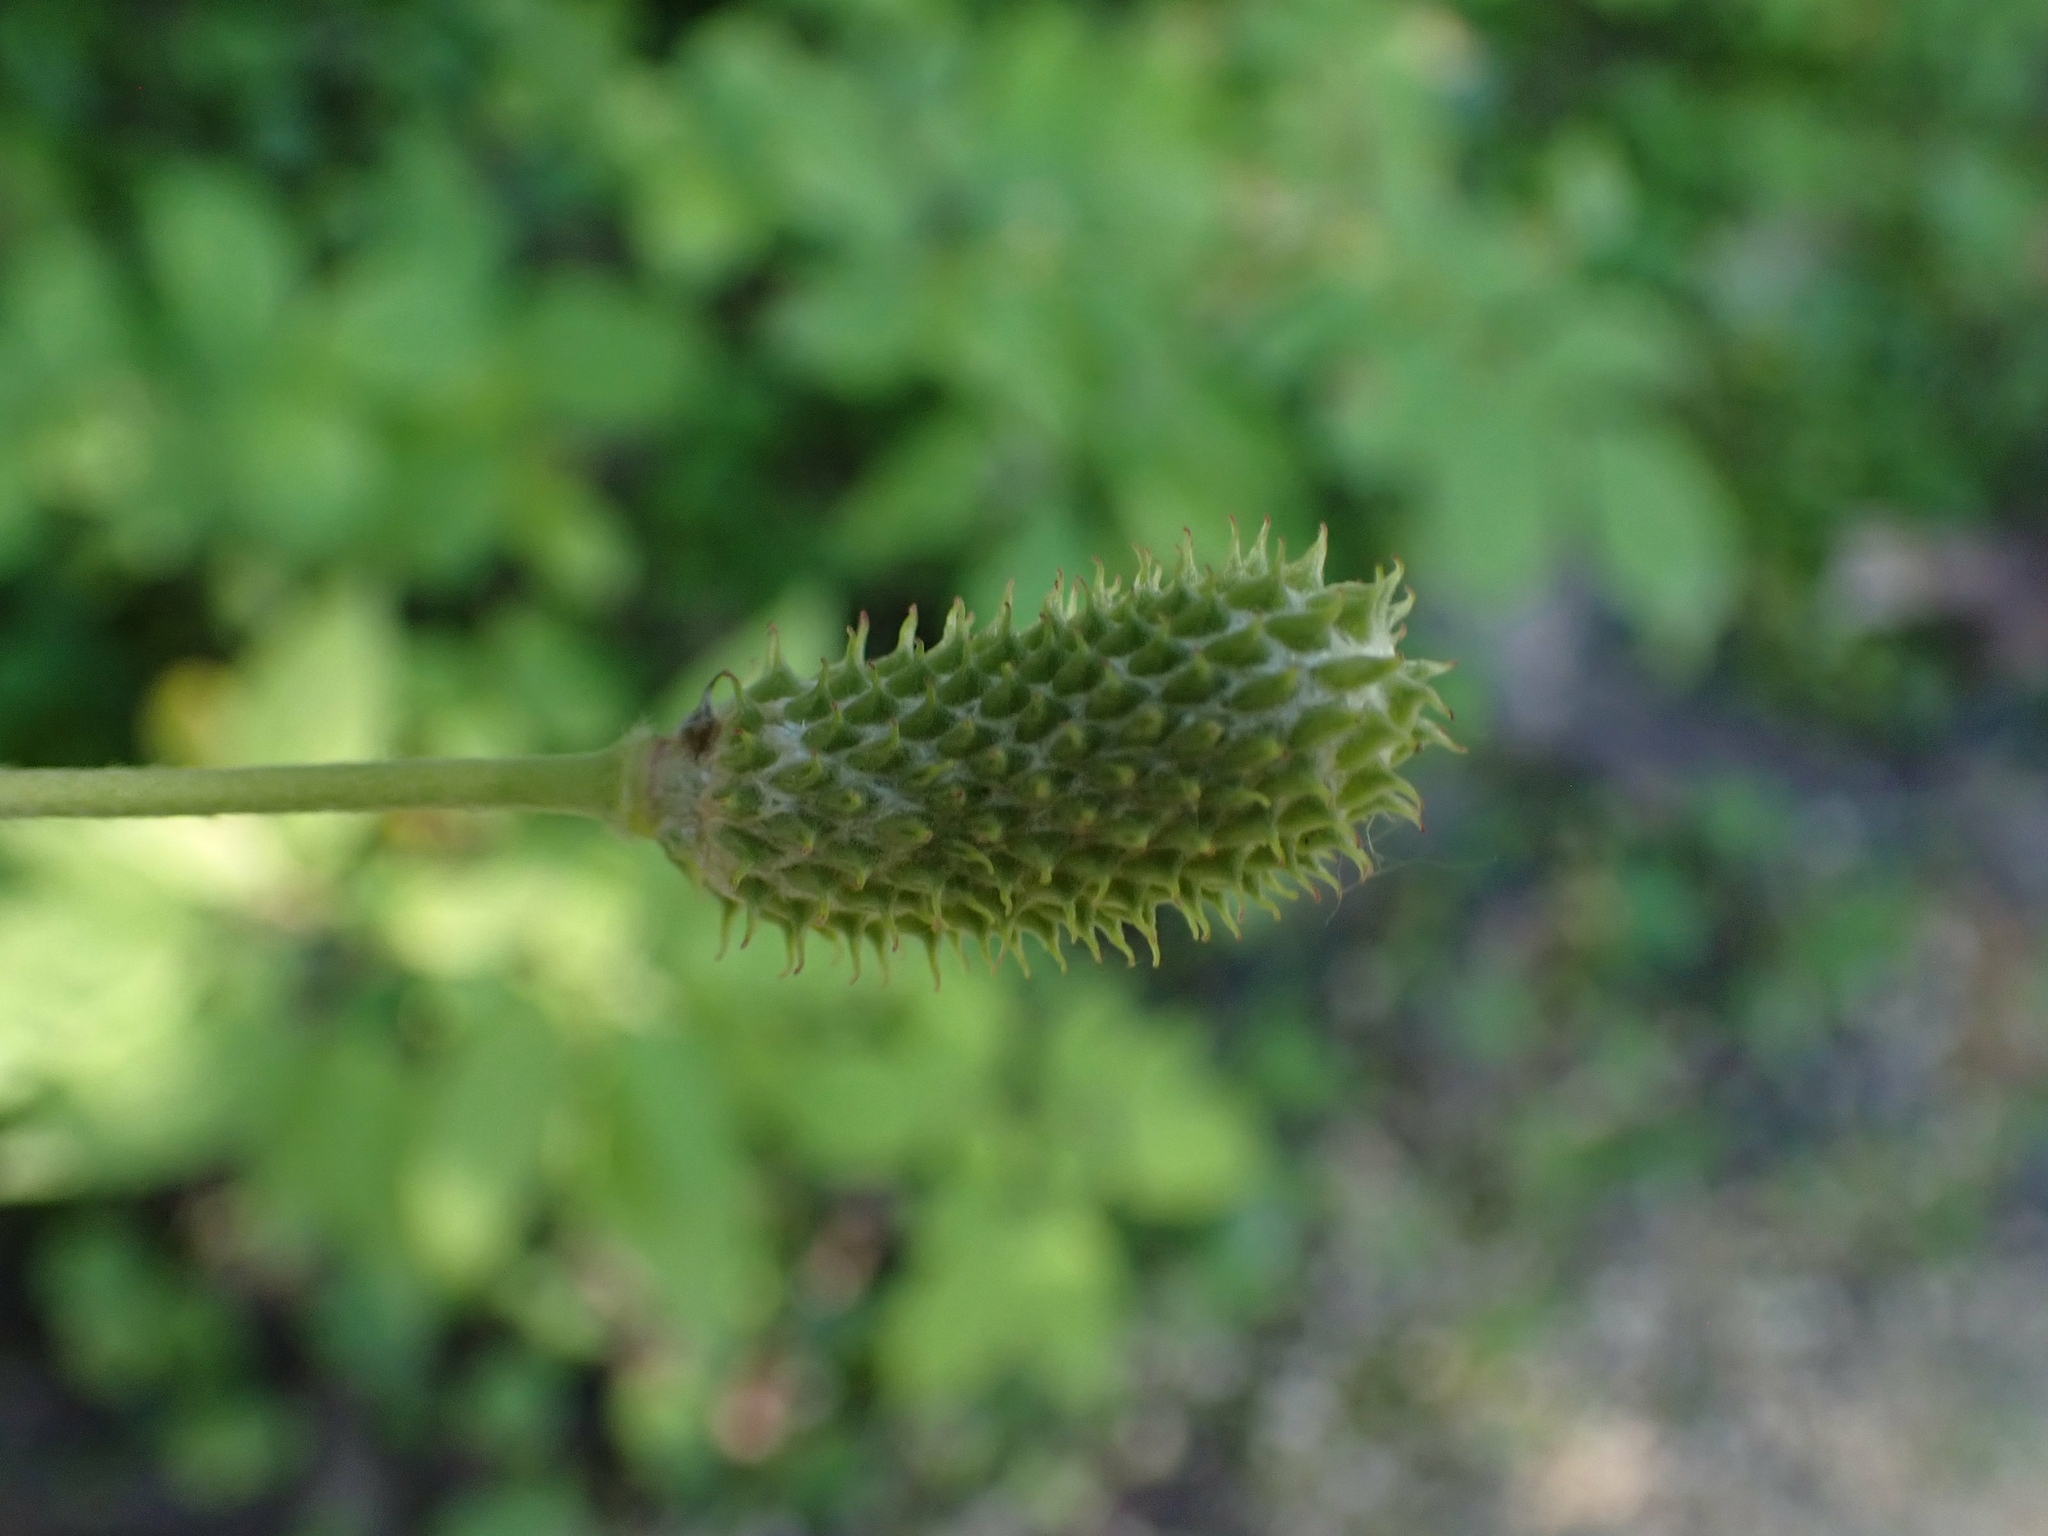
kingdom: Plantae
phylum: Tracheophyta
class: Magnoliopsida
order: Ranunculales
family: Ranunculaceae
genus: Anemone
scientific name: Anemone virginiana
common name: Tall anemone
